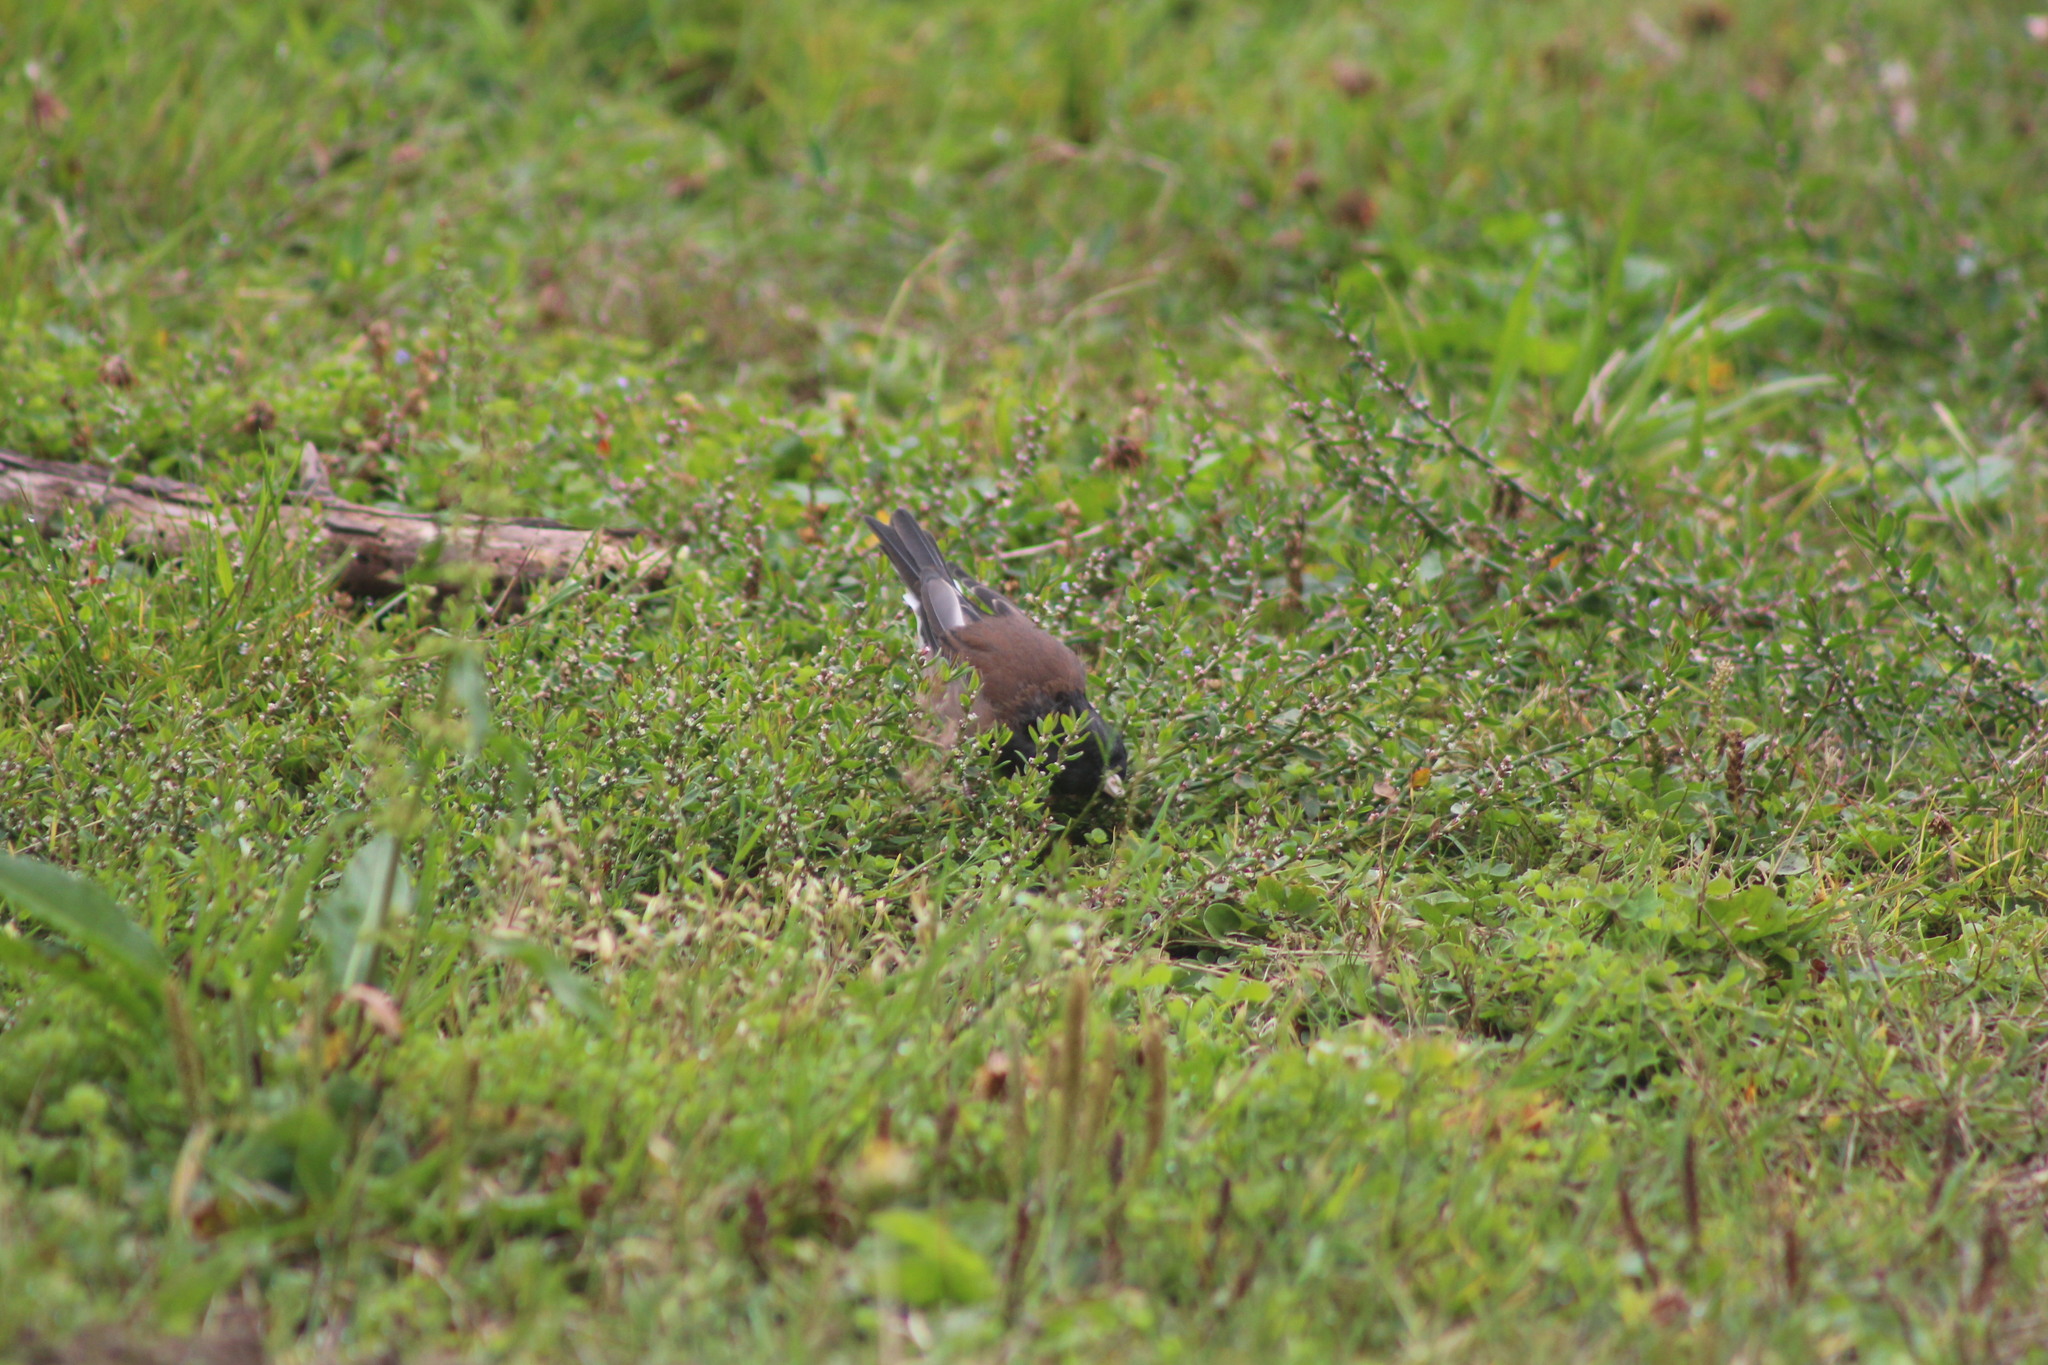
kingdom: Animalia
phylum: Chordata
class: Aves
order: Passeriformes
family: Passerellidae
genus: Junco
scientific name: Junco hyemalis
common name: Dark-eyed junco
